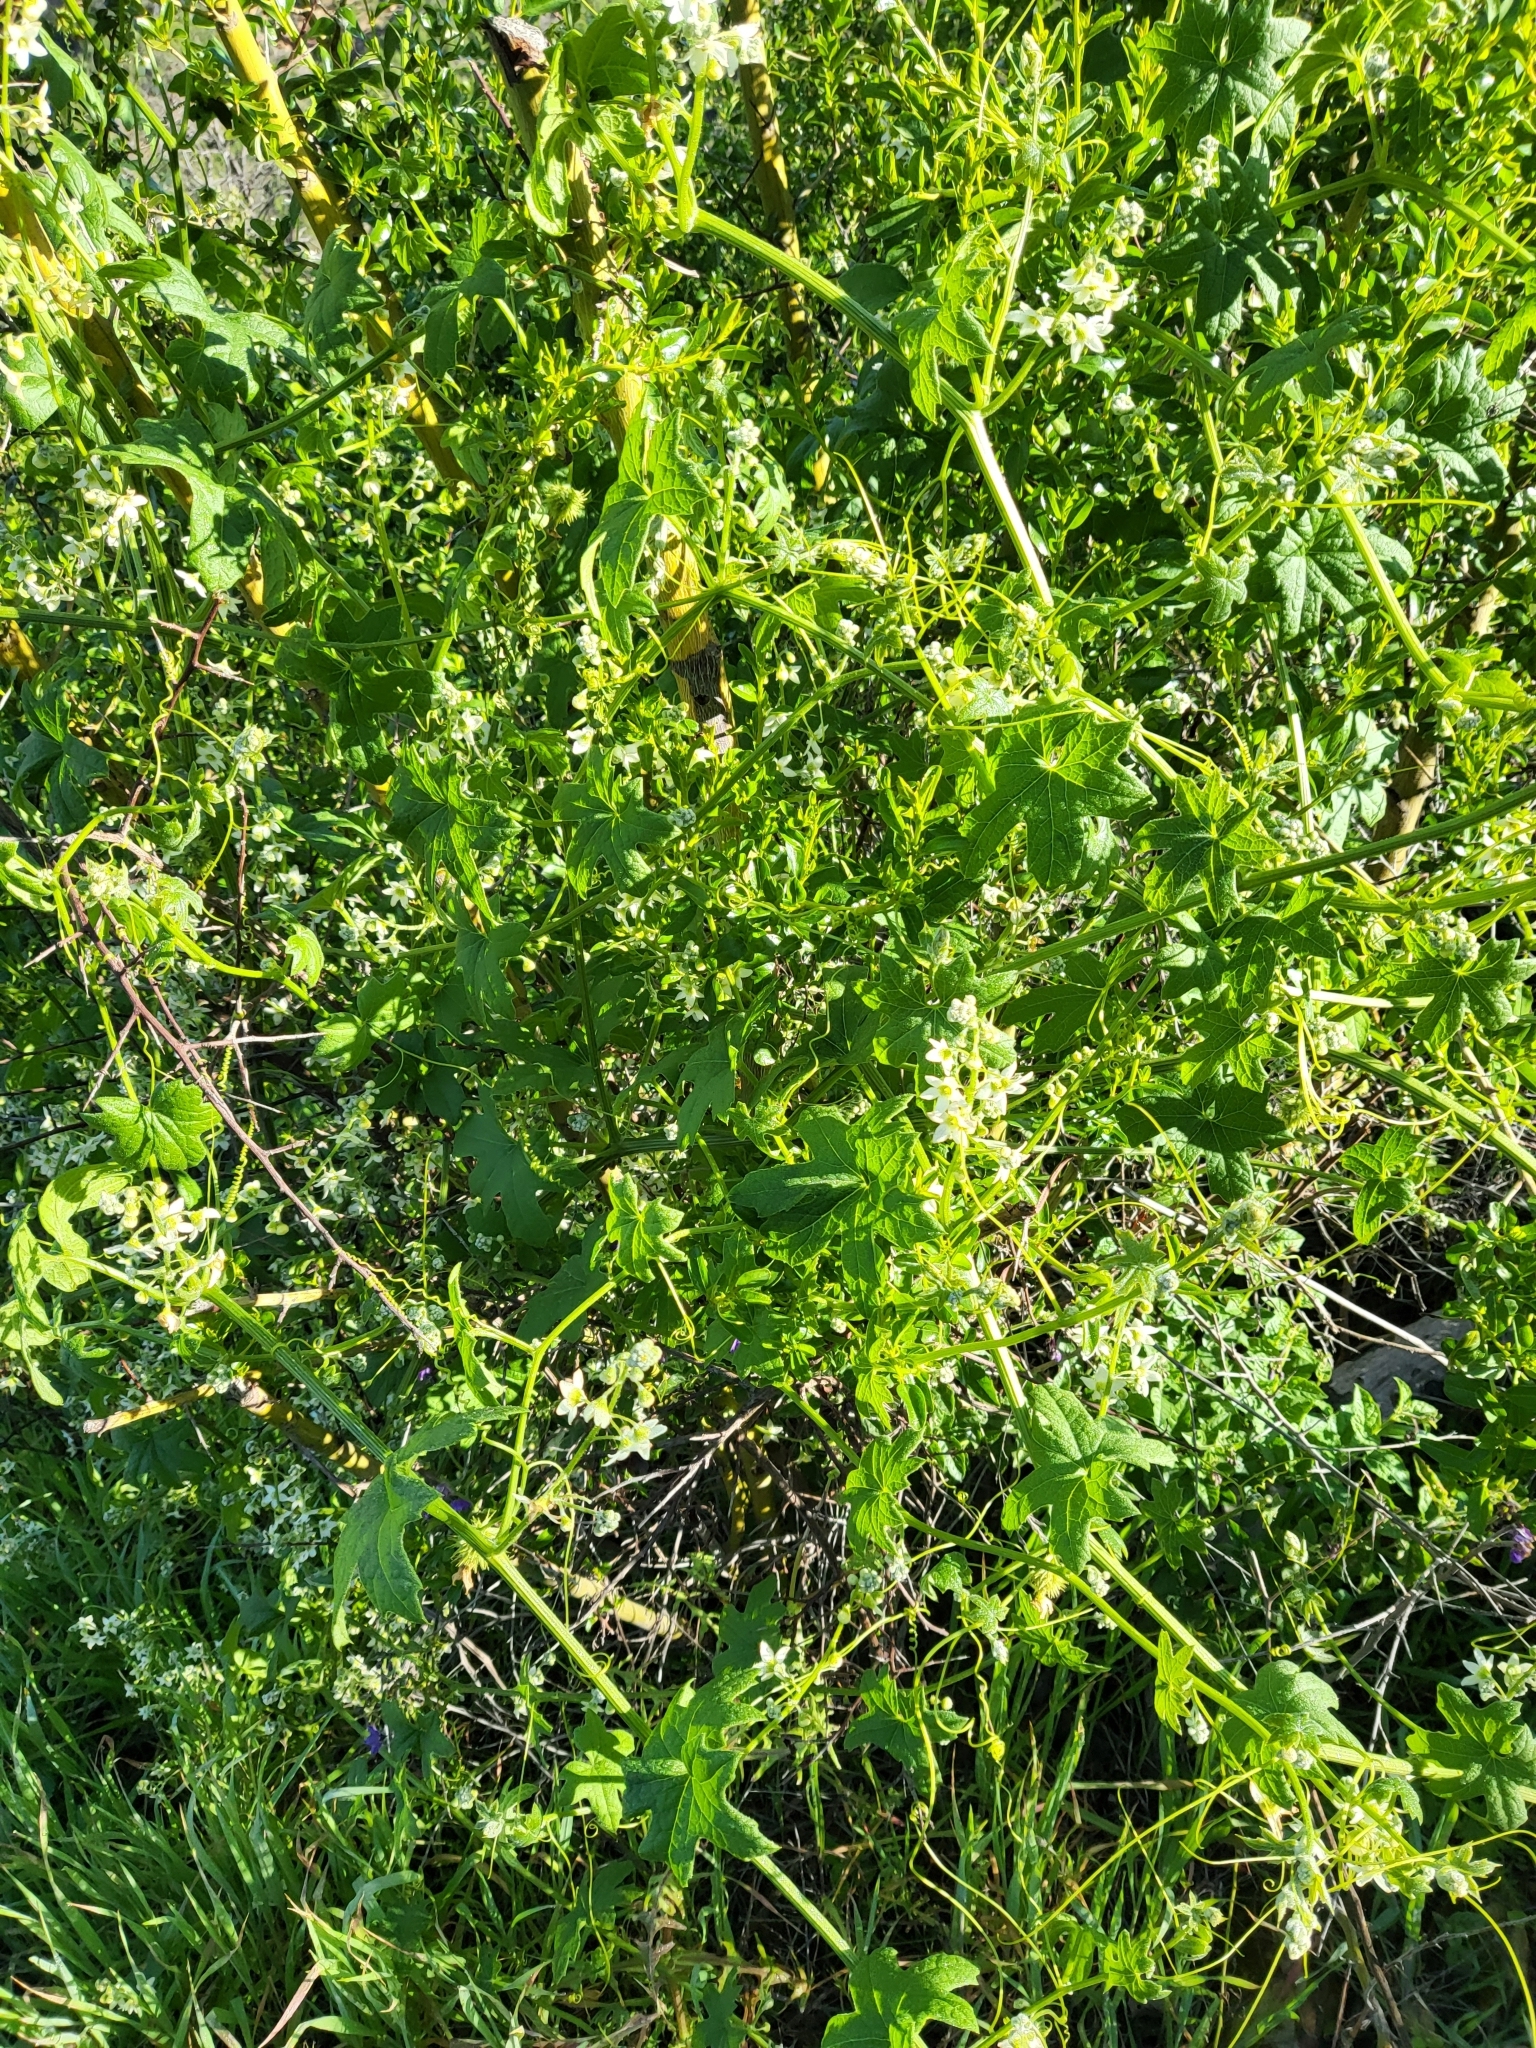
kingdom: Plantae
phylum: Tracheophyta
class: Magnoliopsida
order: Cucurbitales
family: Cucurbitaceae
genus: Marah
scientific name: Marah macrocarpa
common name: Cucamonga manroot
